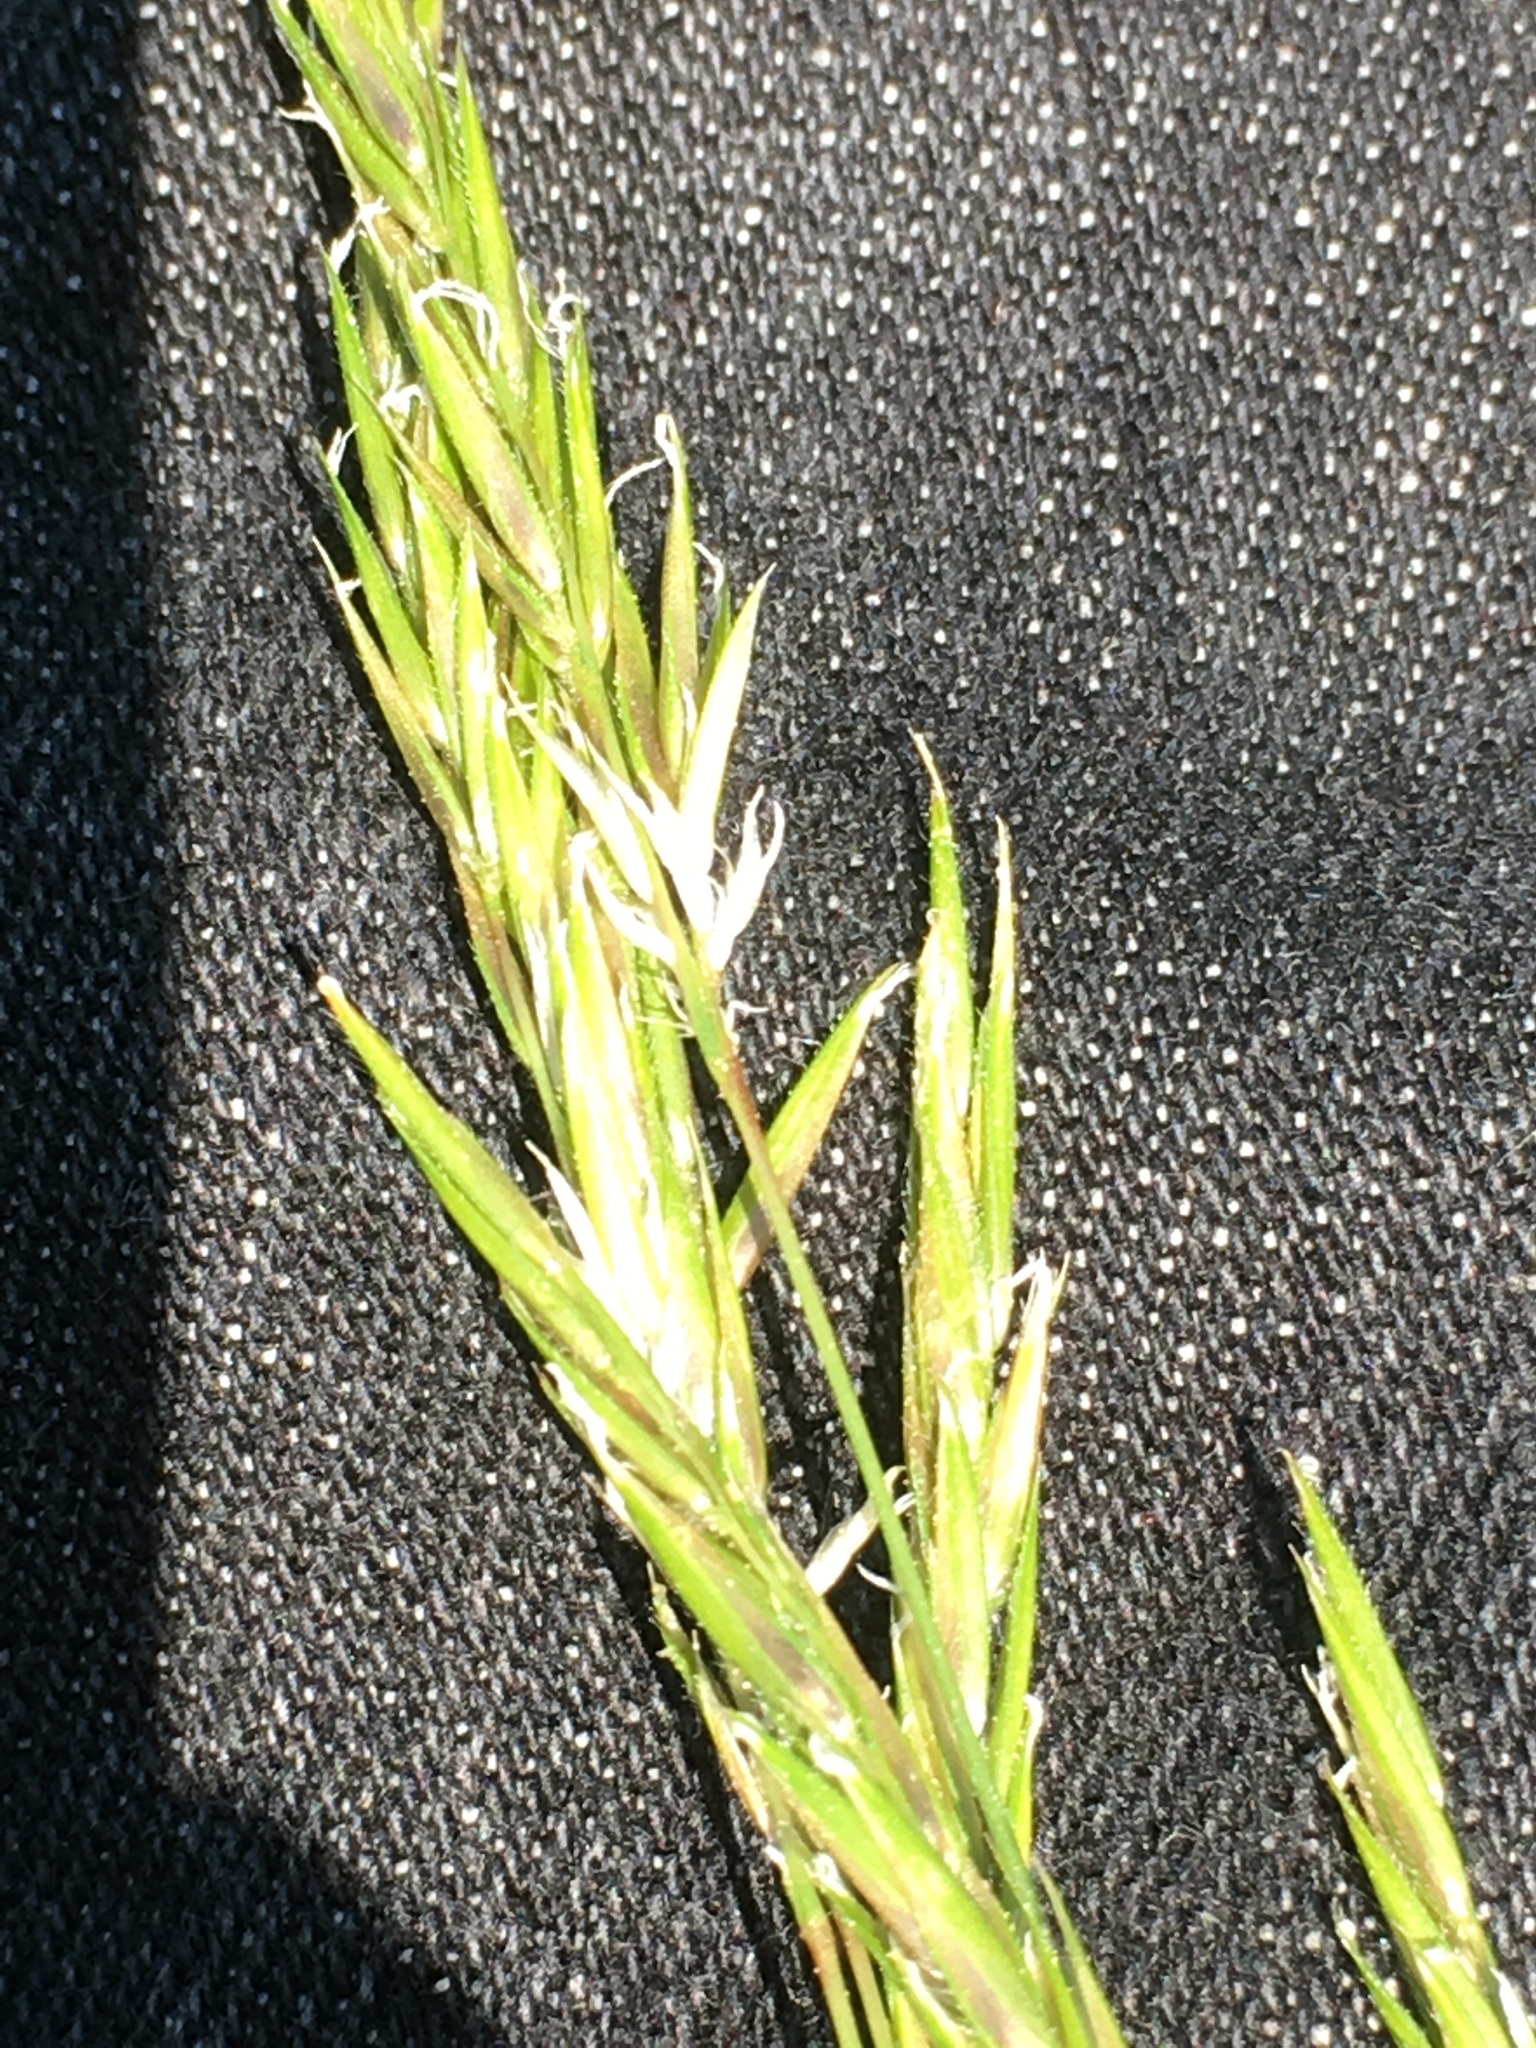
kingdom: Plantae
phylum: Tracheophyta
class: Liliopsida
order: Poales
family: Poaceae
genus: Anthoxanthum
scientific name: Anthoxanthum odoratum
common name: Sweet vernalgrass
